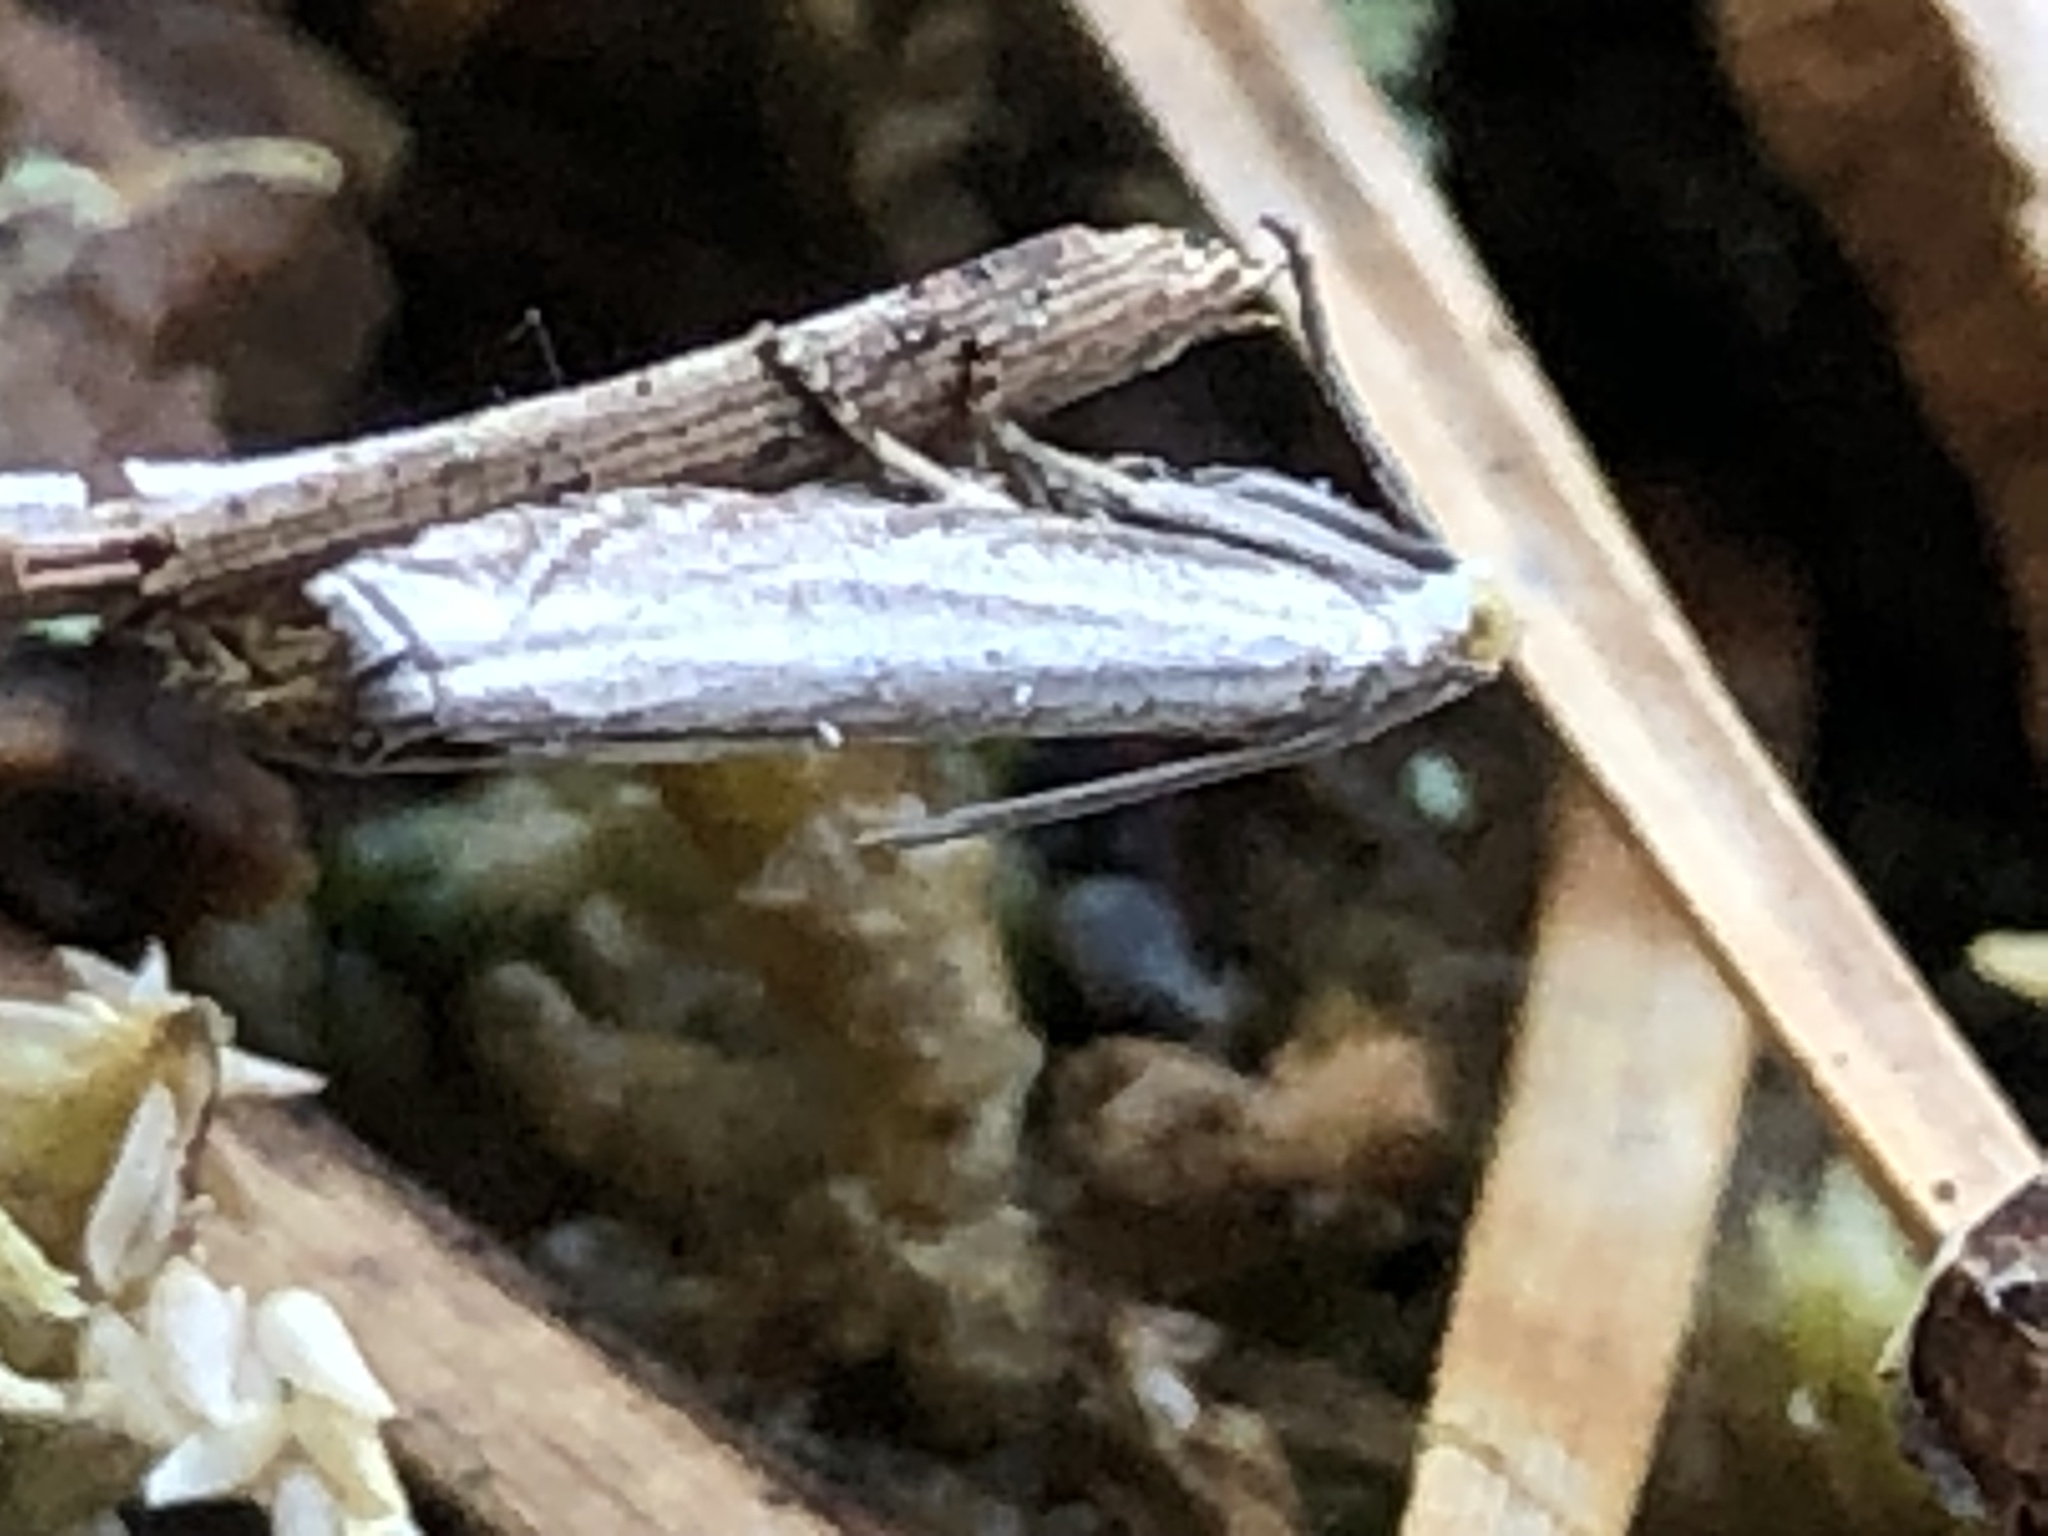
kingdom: Animalia
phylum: Arthropoda
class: Insecta
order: Lepidoptera
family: Crambidae
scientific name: Crambidae
